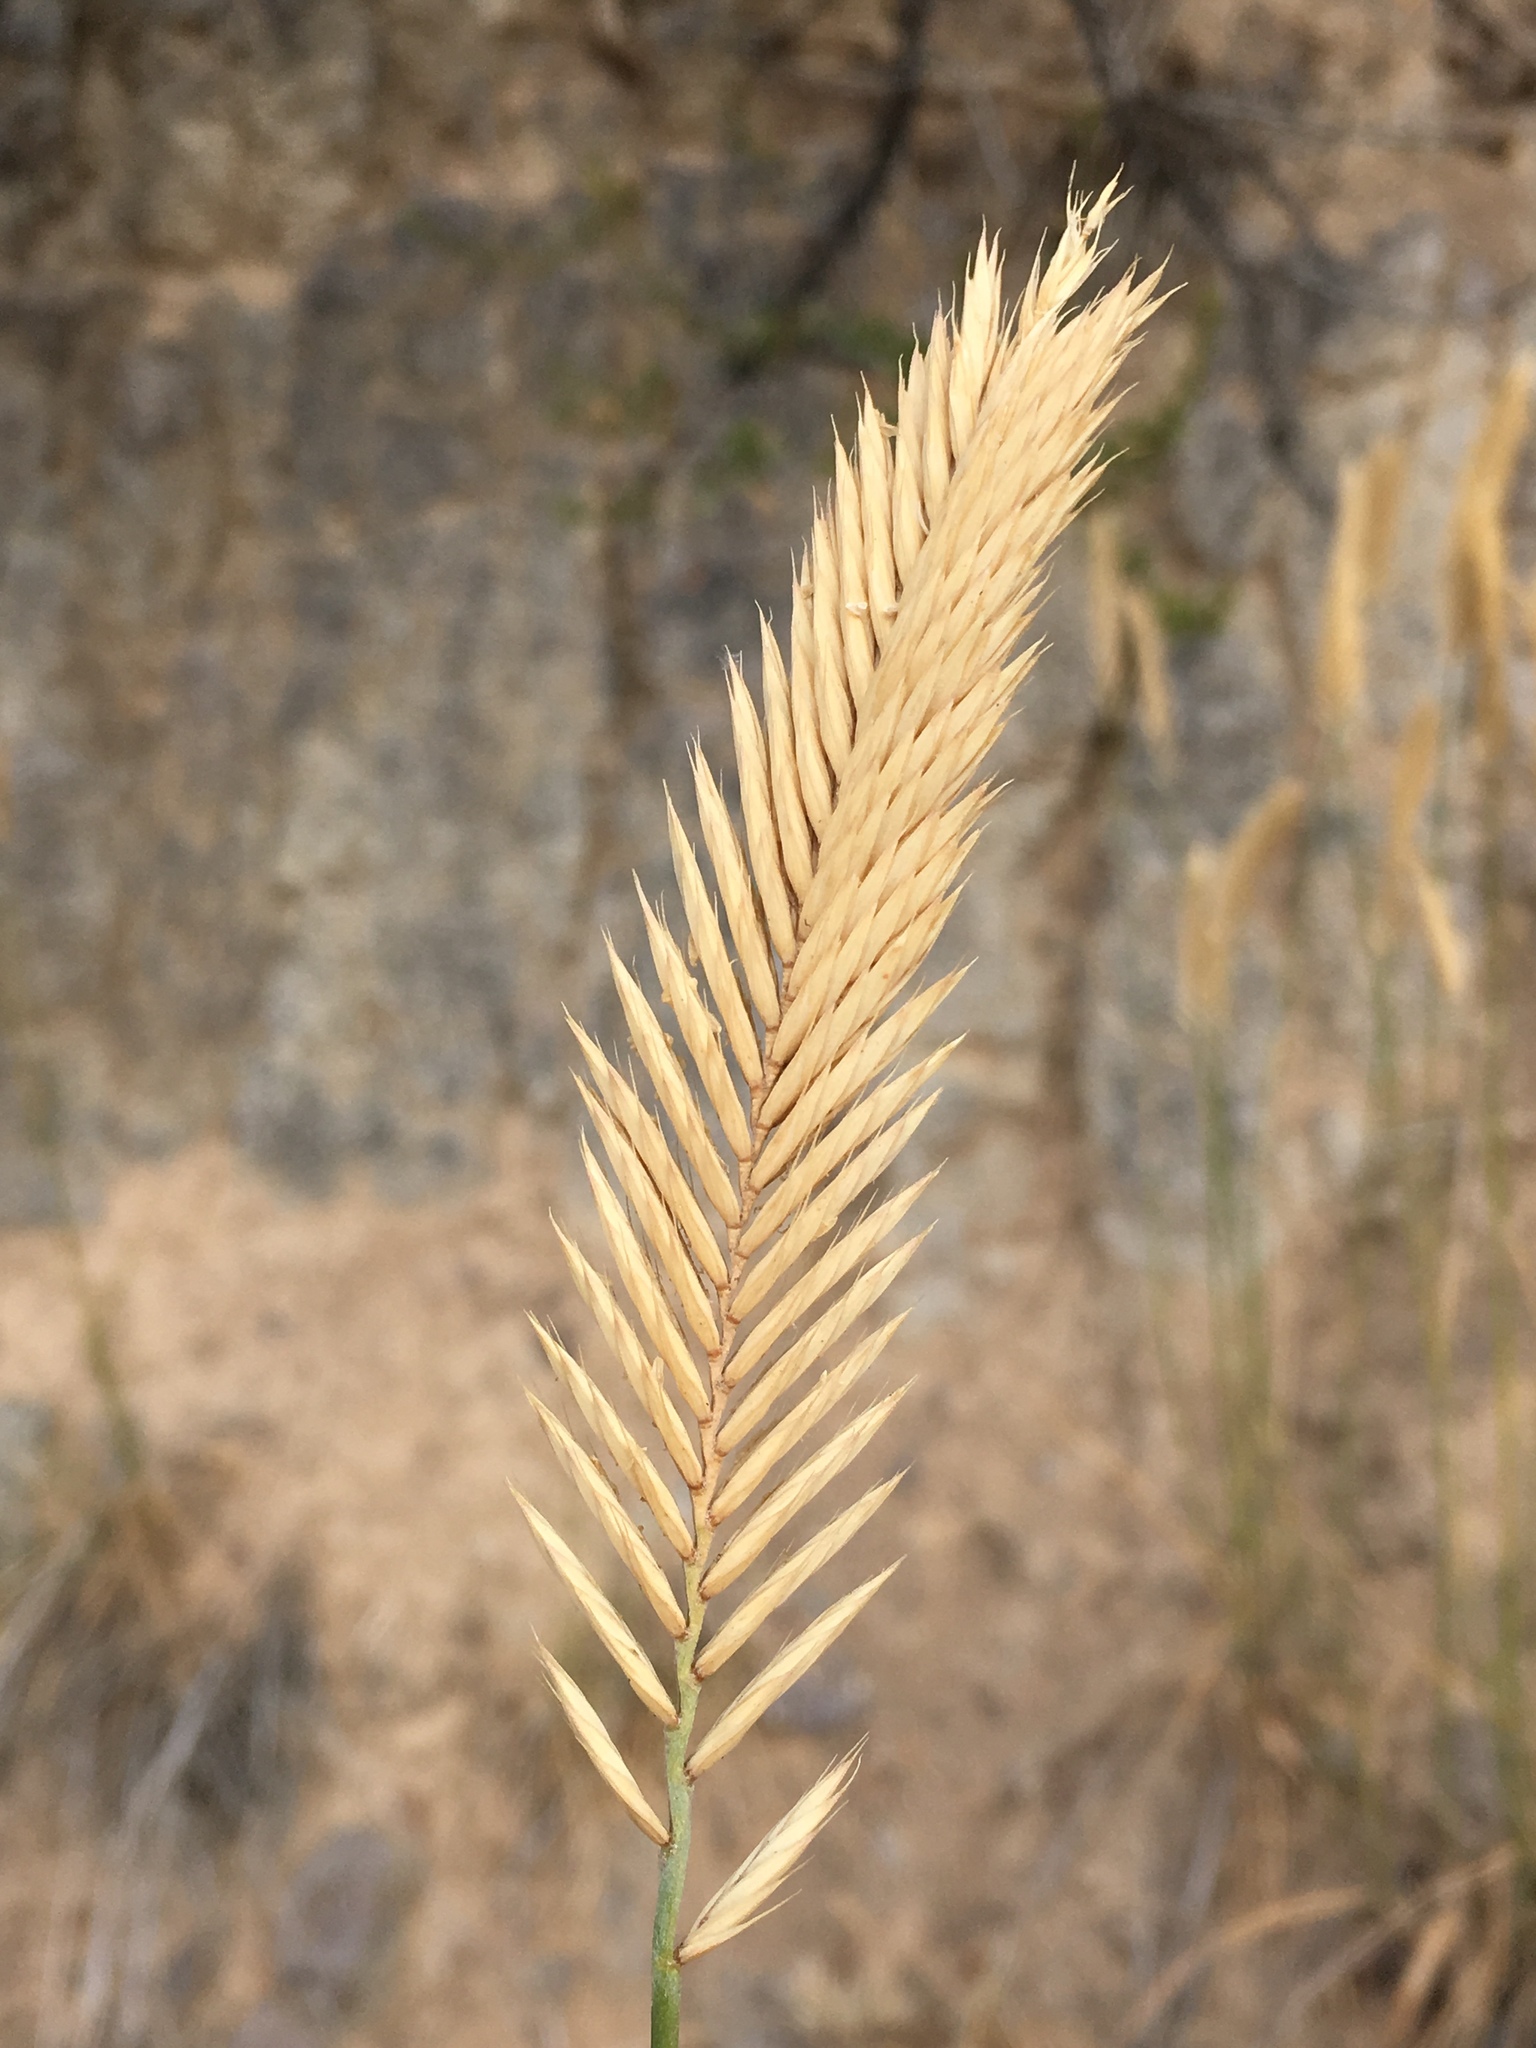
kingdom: Plantae
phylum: Tracheophyta
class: Liliopsida
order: Poales
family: Poaceae
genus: Agropyron
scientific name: Agropyron cristatum
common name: Crested wheatgrass
